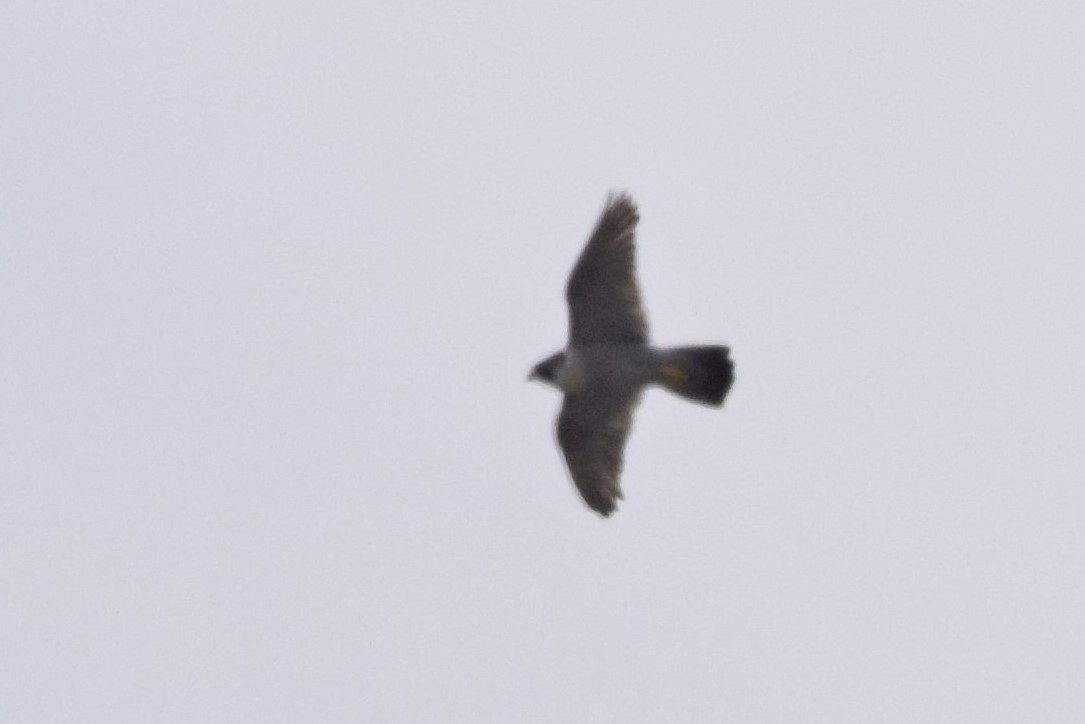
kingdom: Animalia
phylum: Chordata
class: Aves
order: Falconiformes
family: Falconidae
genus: Falco
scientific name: Falco peregrinus
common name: Peregrine falcon
